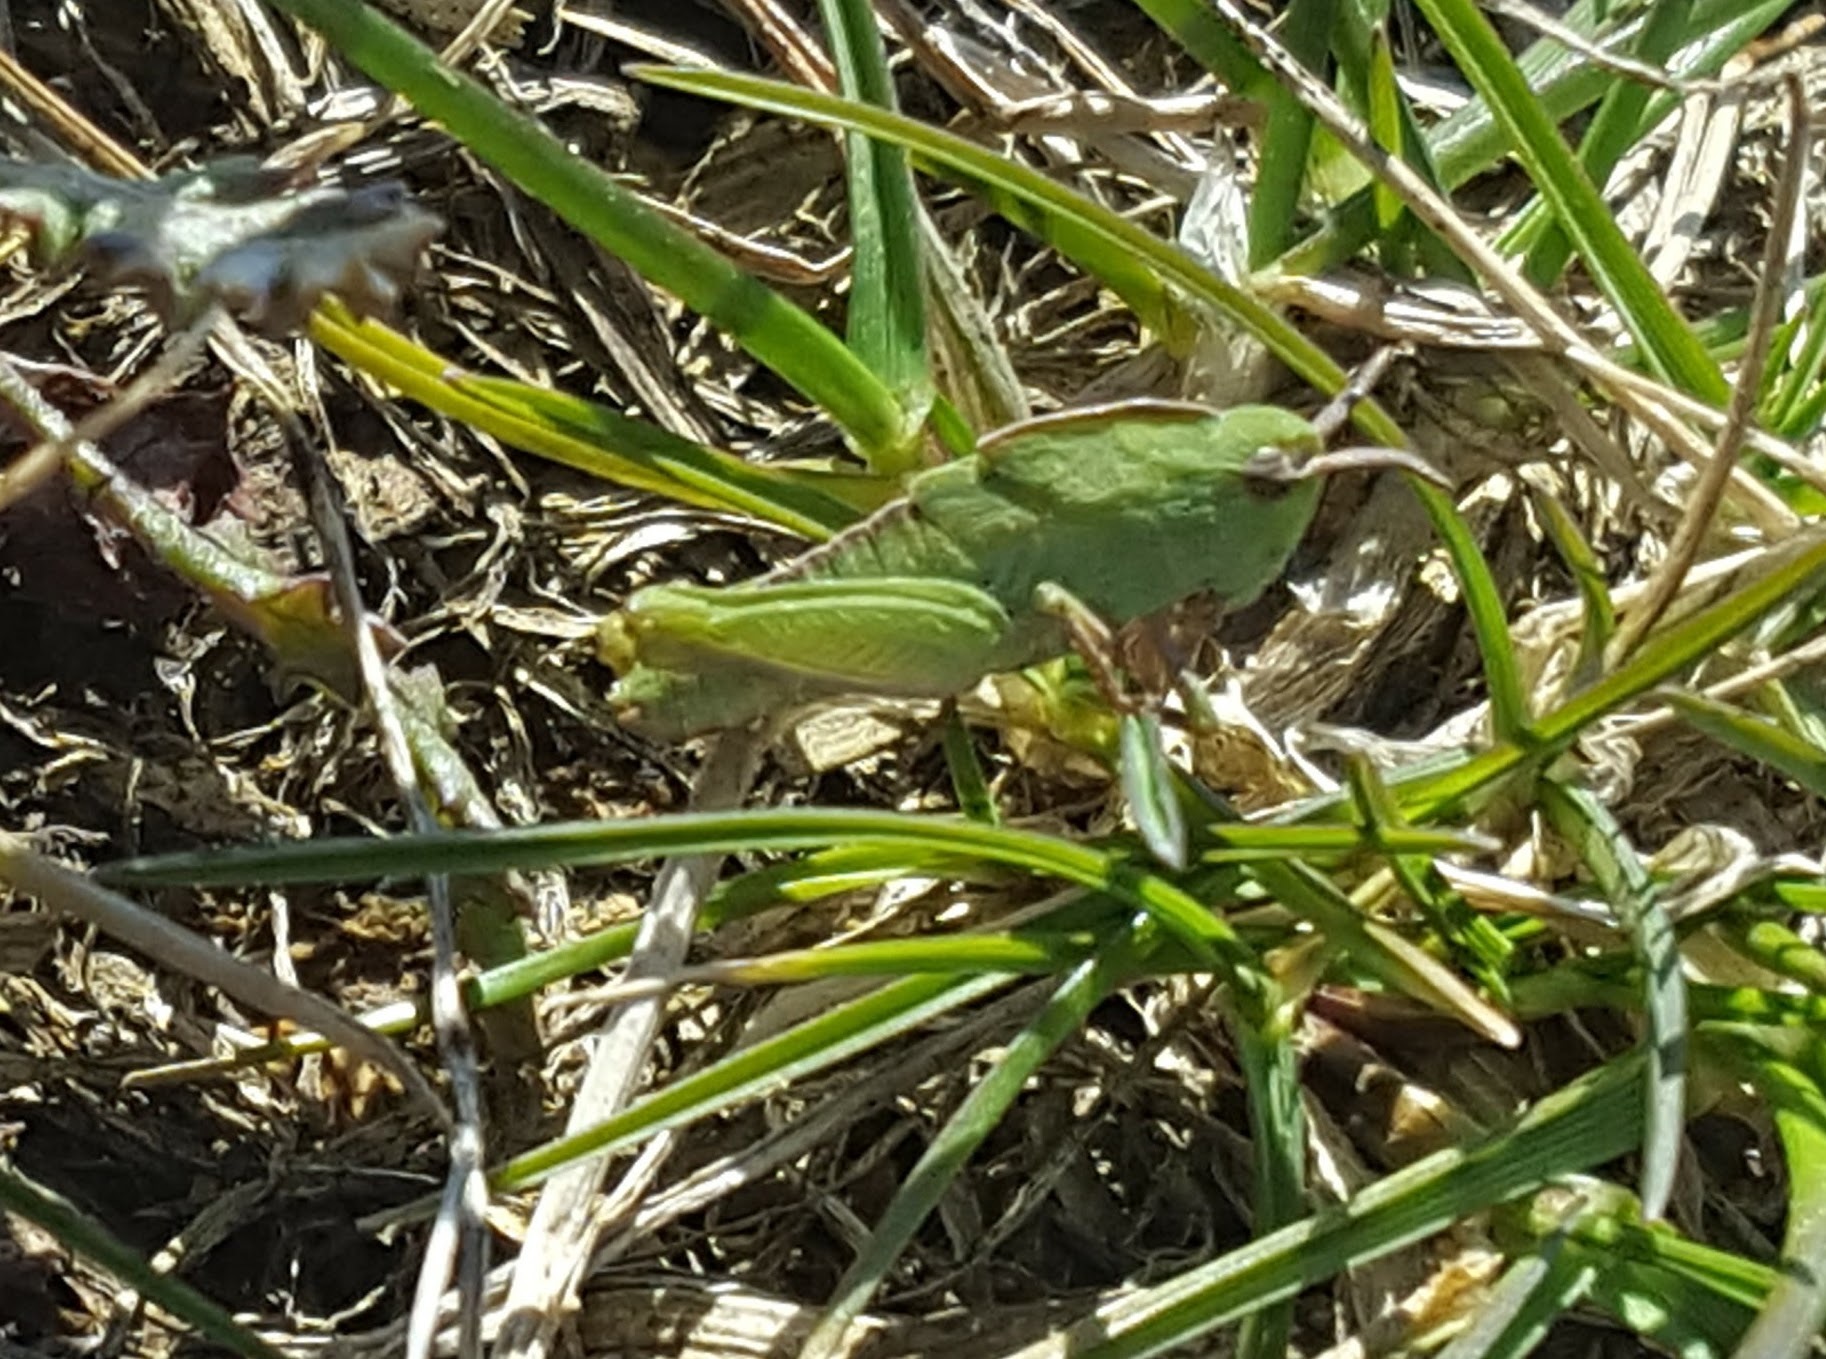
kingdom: Animalia
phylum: Arthropoda
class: Insecta
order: Orthoptera
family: Acrididae
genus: Chortophaga
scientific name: Chortophaga viridifasciata
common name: Green-striped grasshopper
